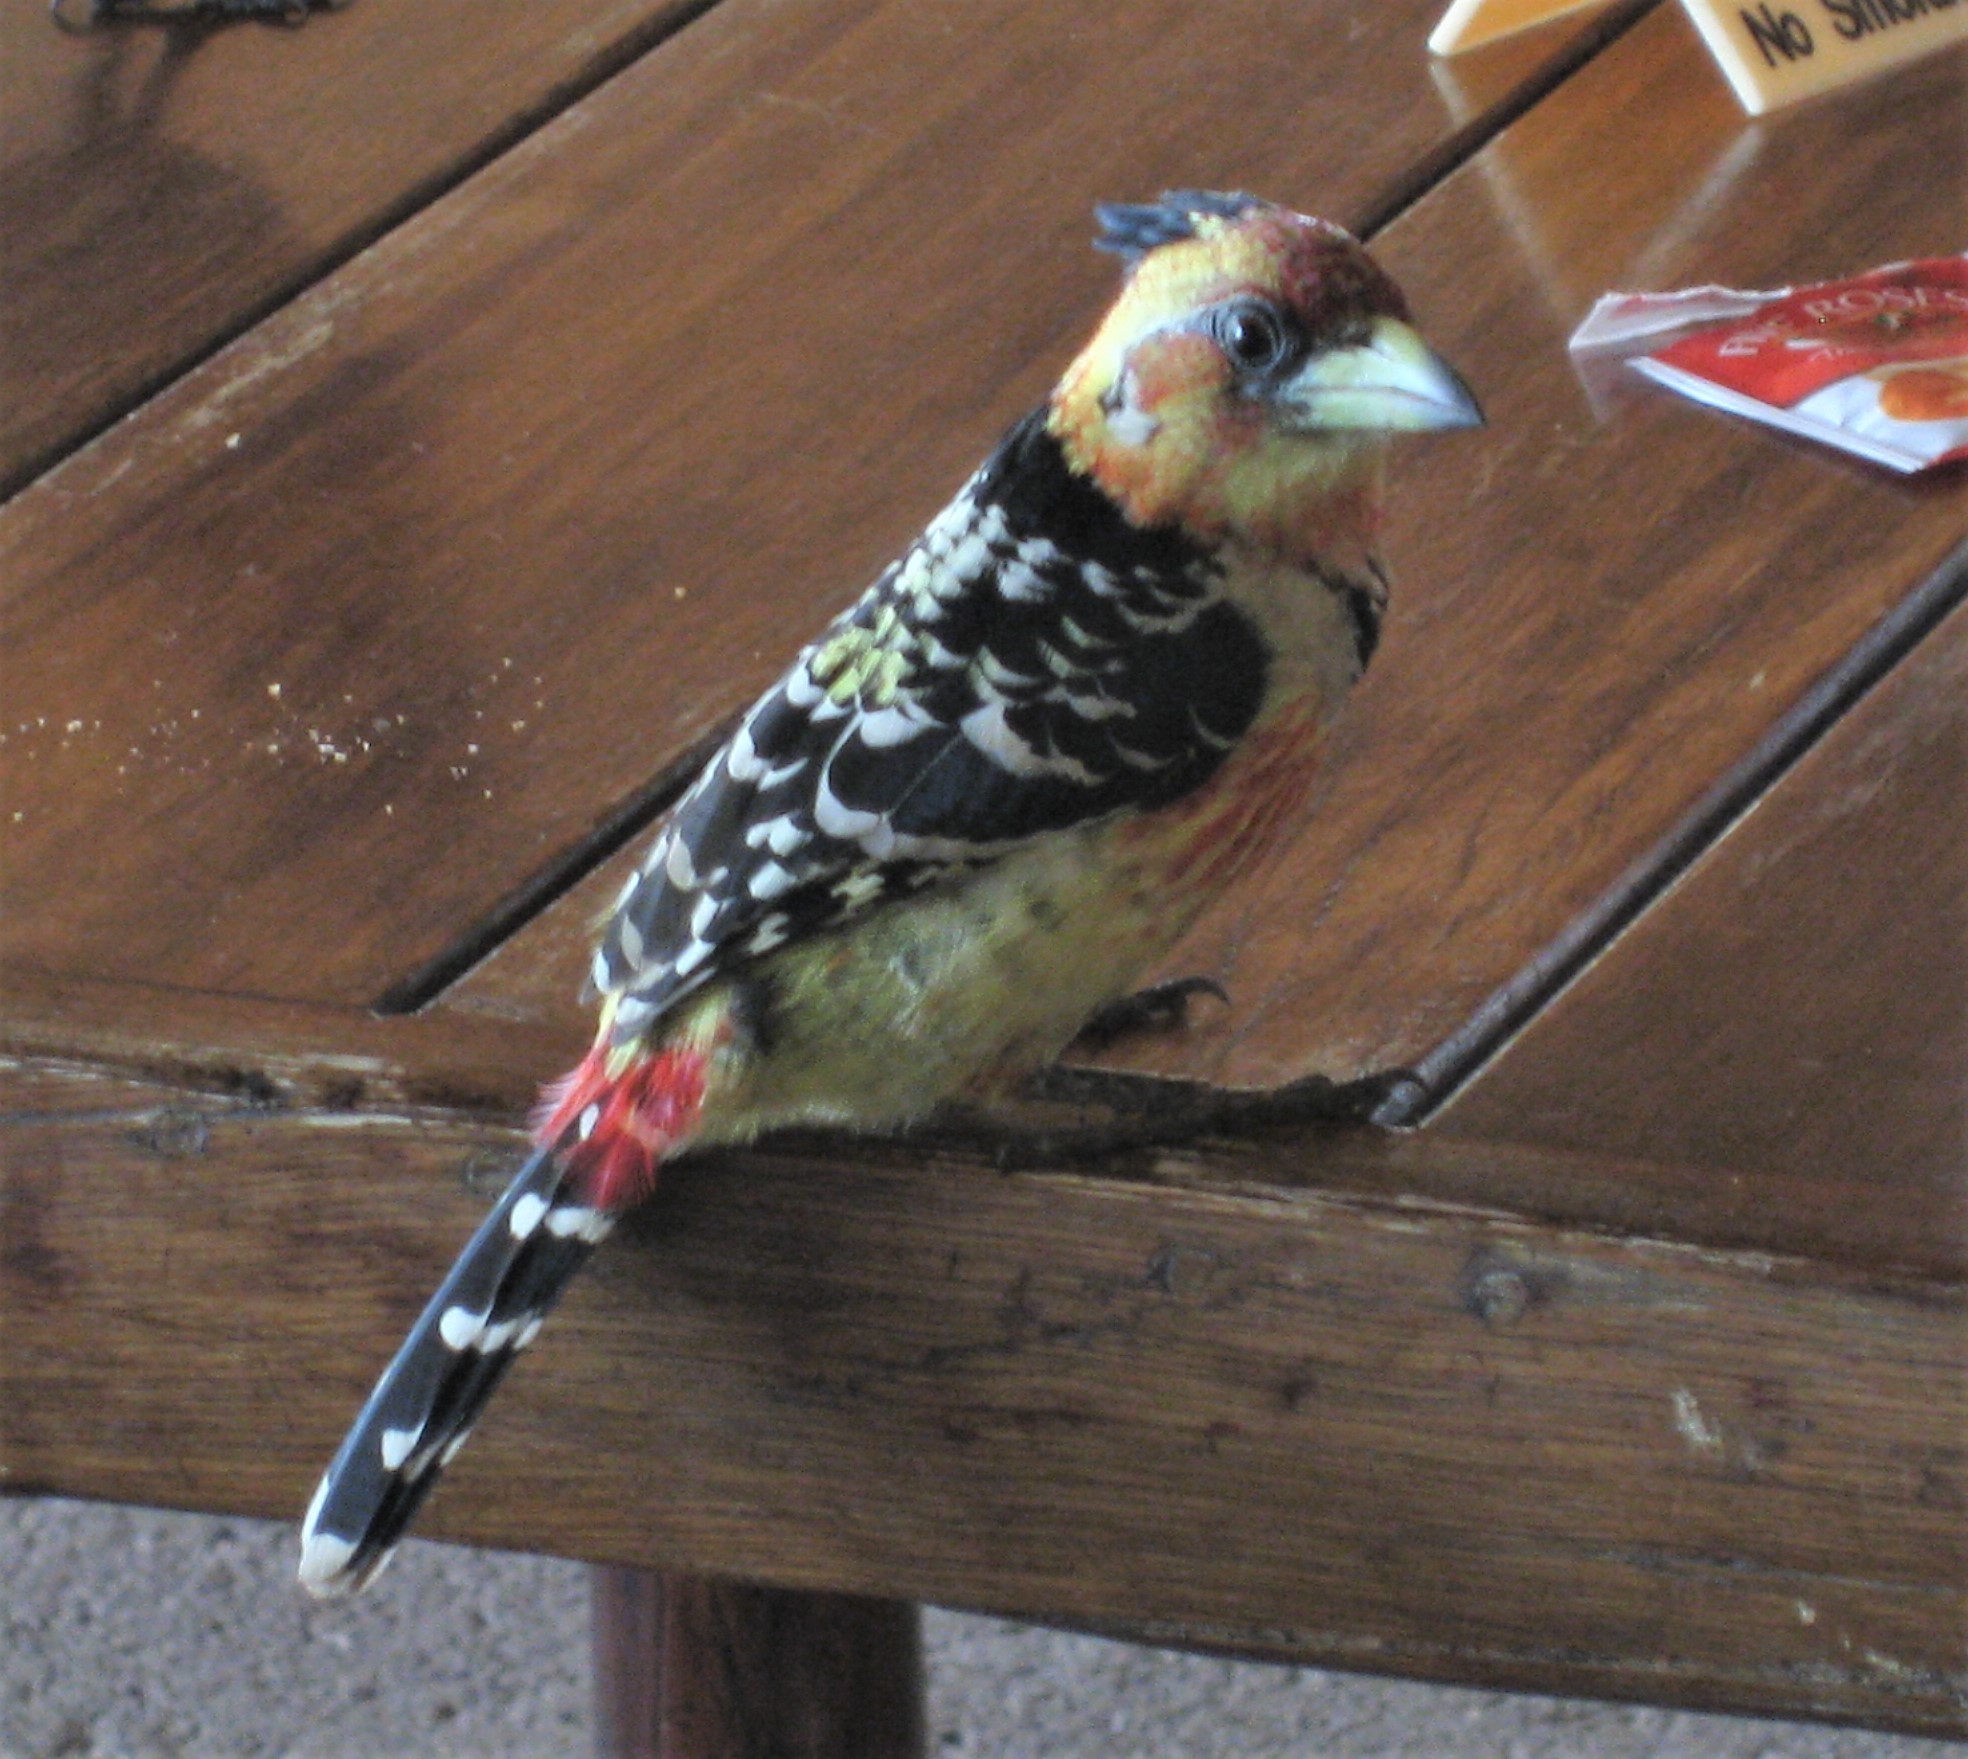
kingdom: Animalia
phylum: Chordata
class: Aves
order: Piciformes
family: Lybiidae
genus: Trachyphonus
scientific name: Trachyphonus vaillantii
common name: Crested barbet
